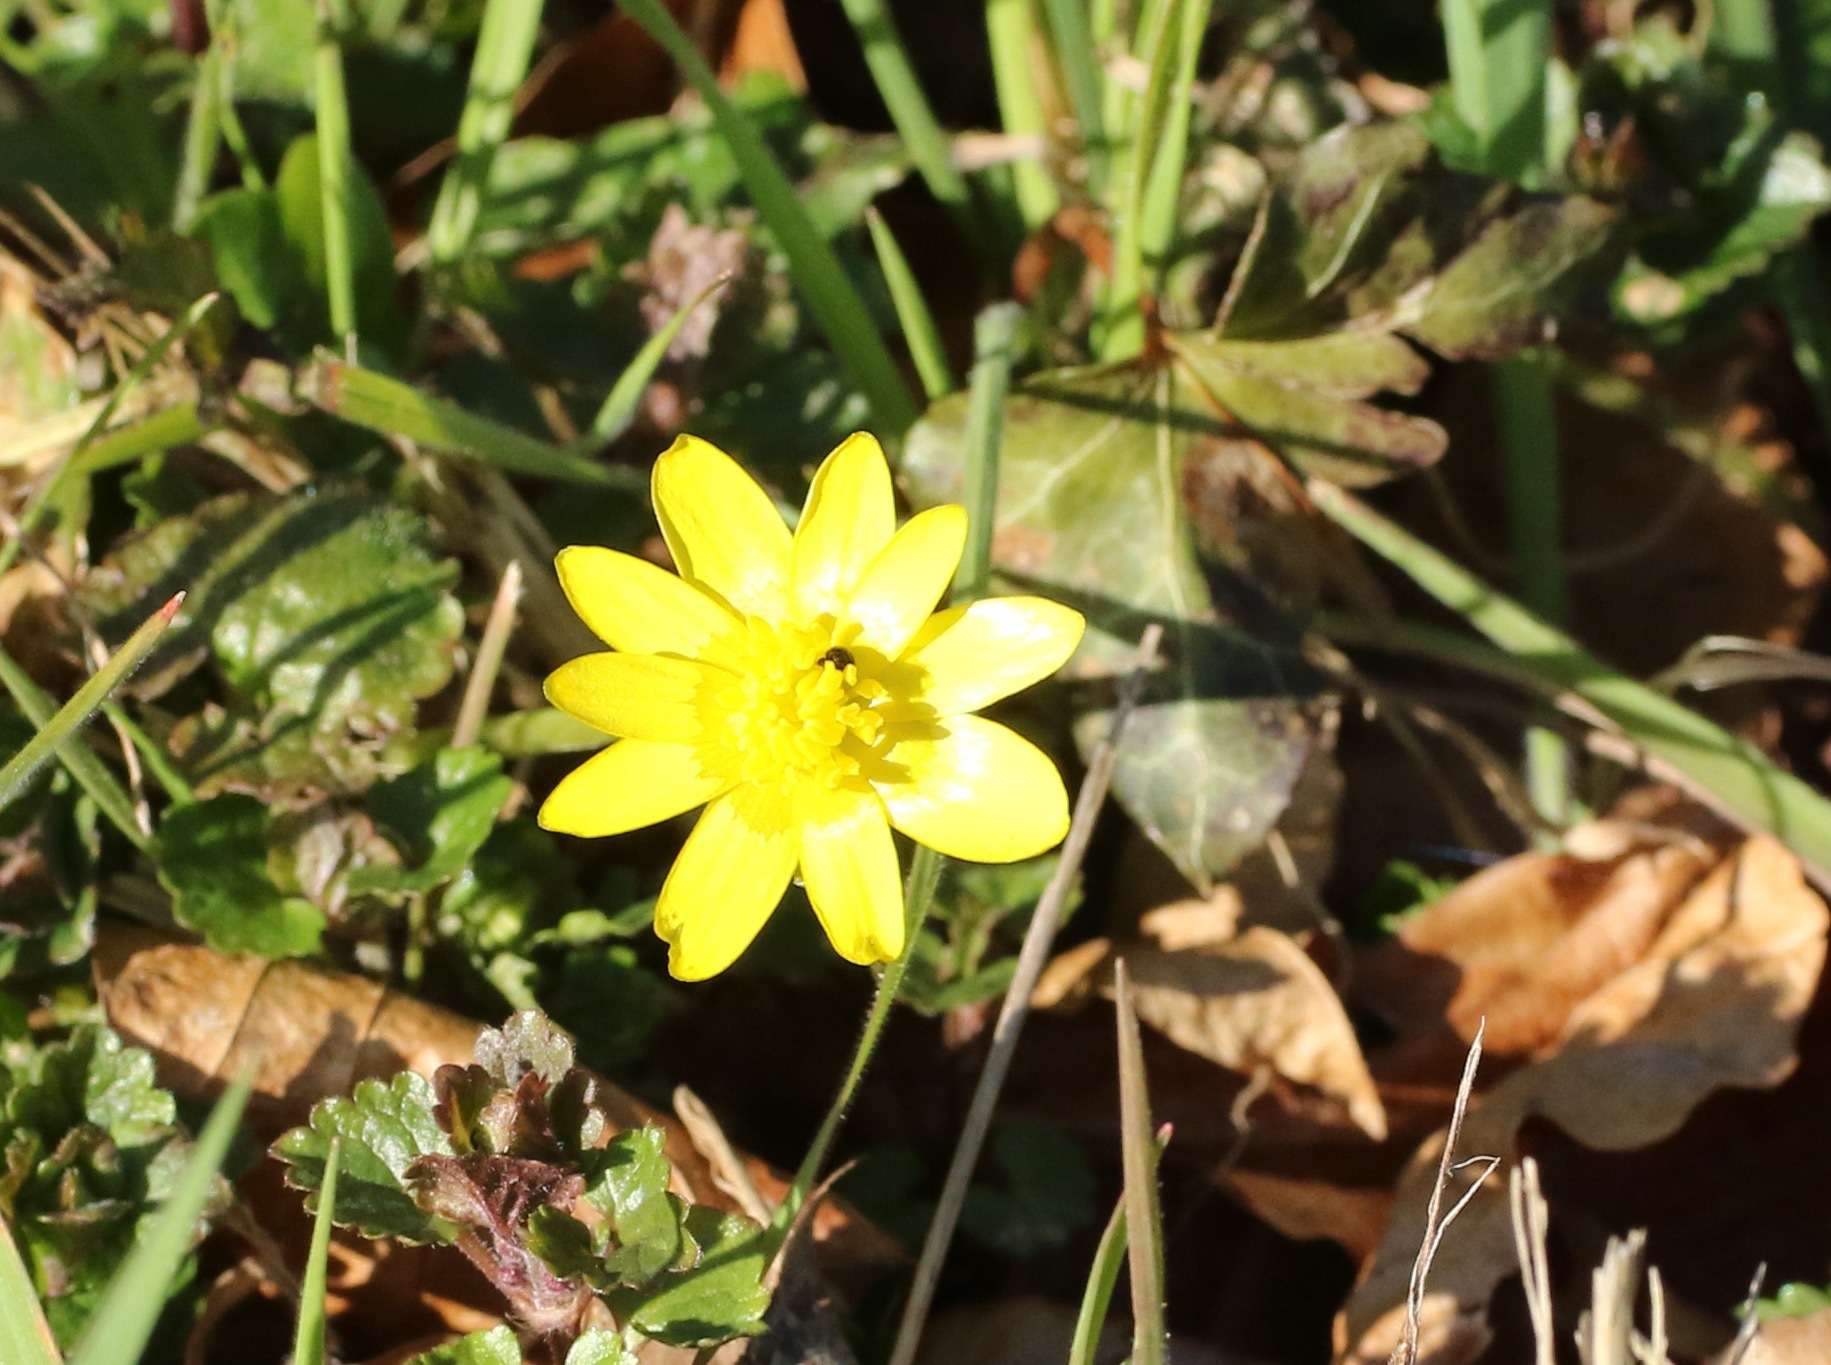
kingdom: Plantae
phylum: Tracheophyta
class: Magnoliopsida
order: Ranunculales
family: Ranunculaceae
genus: Ficaria
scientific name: Ficaria verna
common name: Lesser celandine
